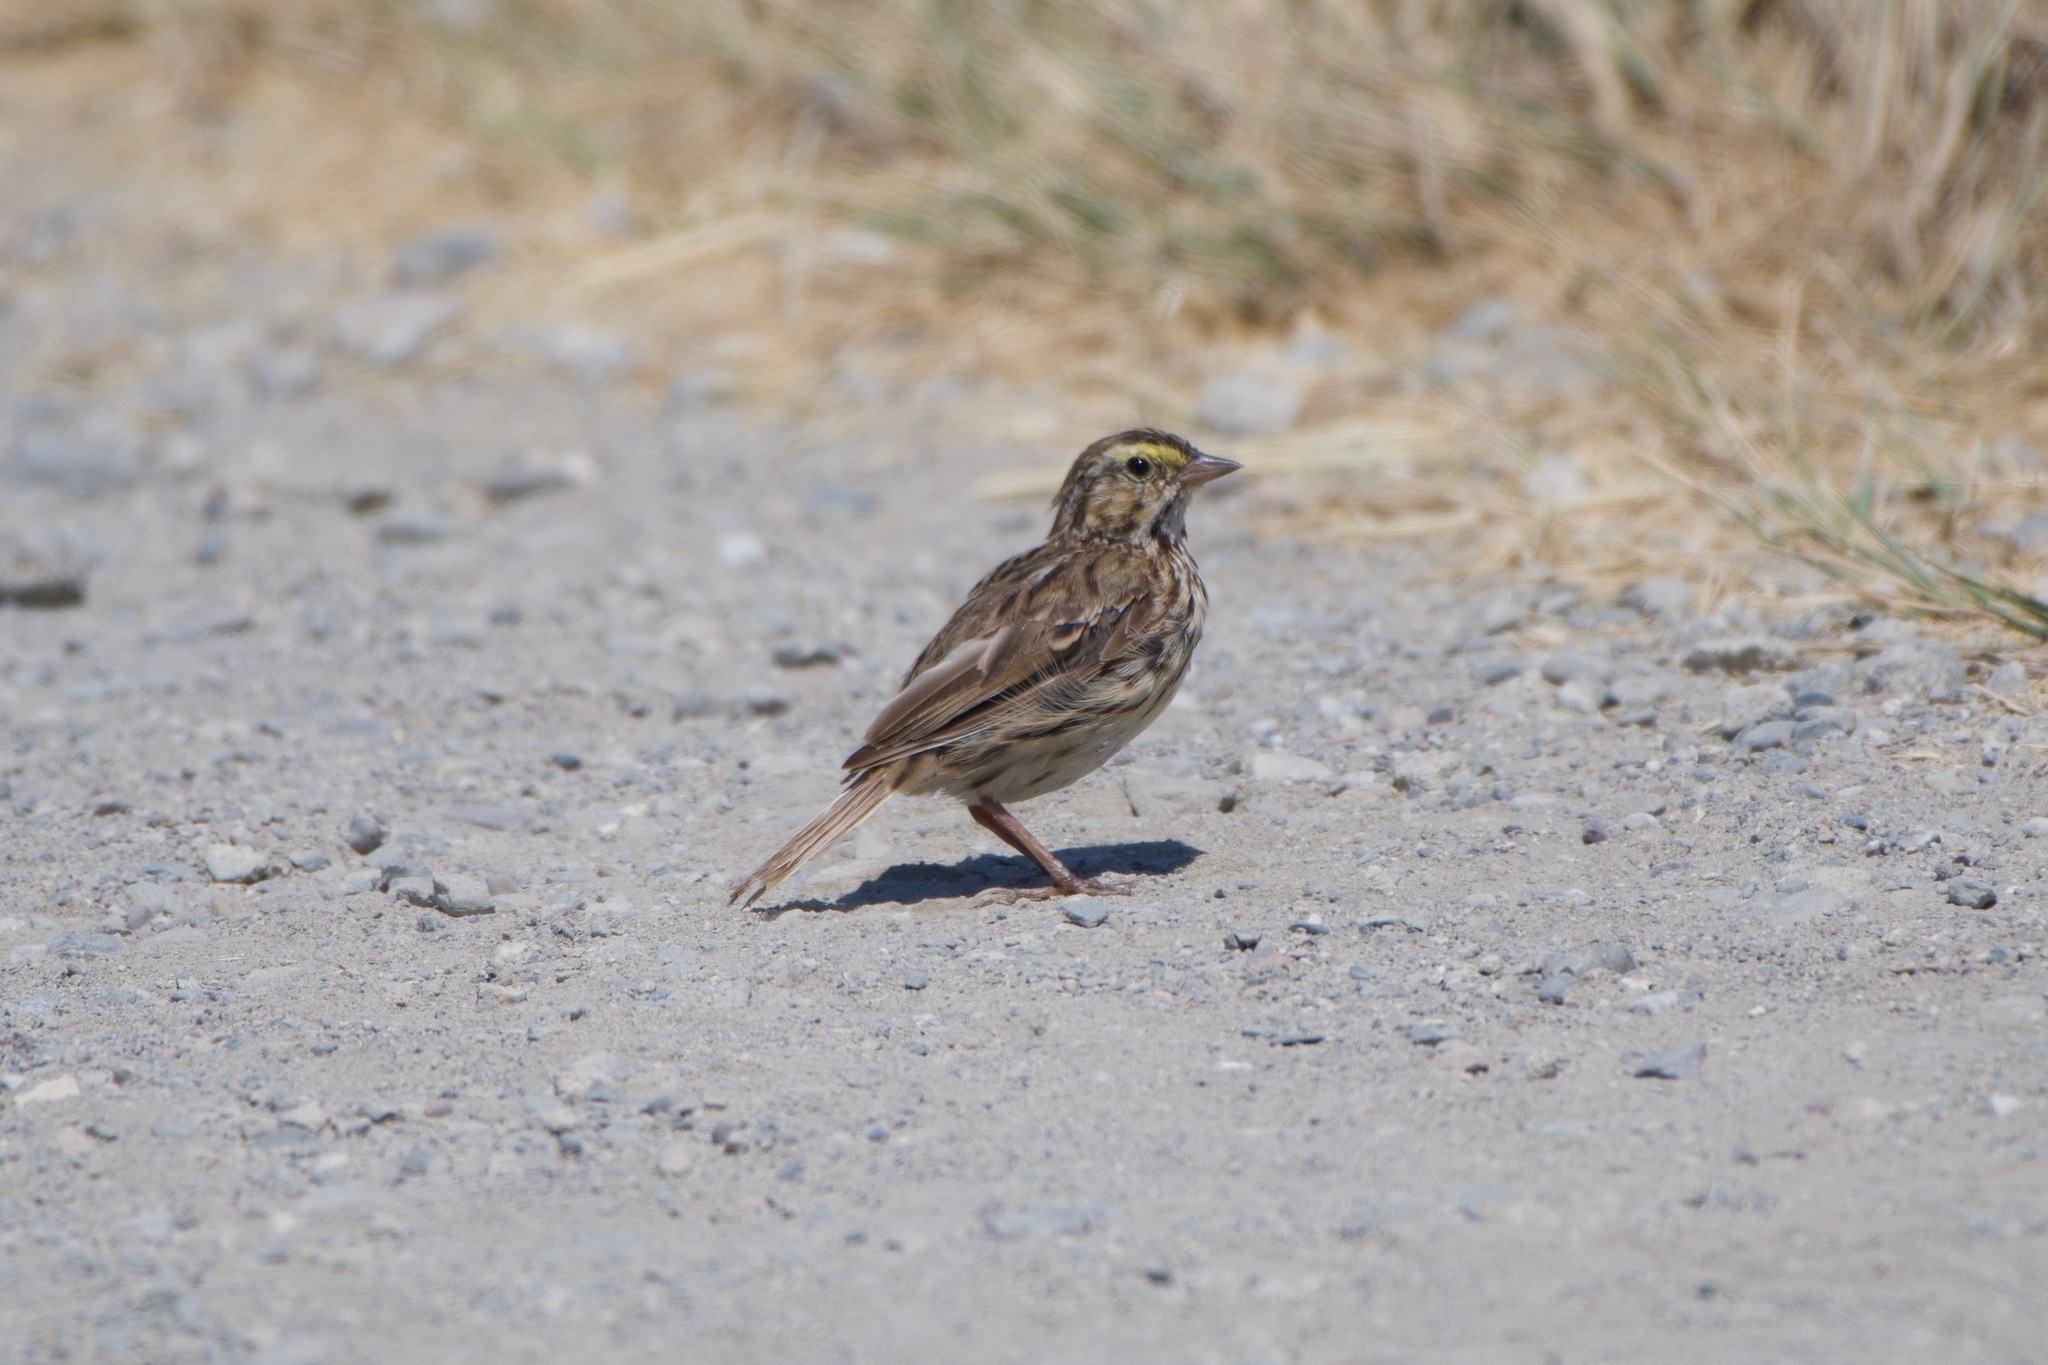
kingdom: Animalia
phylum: Chordata
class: Aves
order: Passeriformes
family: Passerellidae
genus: Passerculus
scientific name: Passerculus sandwichensis
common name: Savannah sparrow
